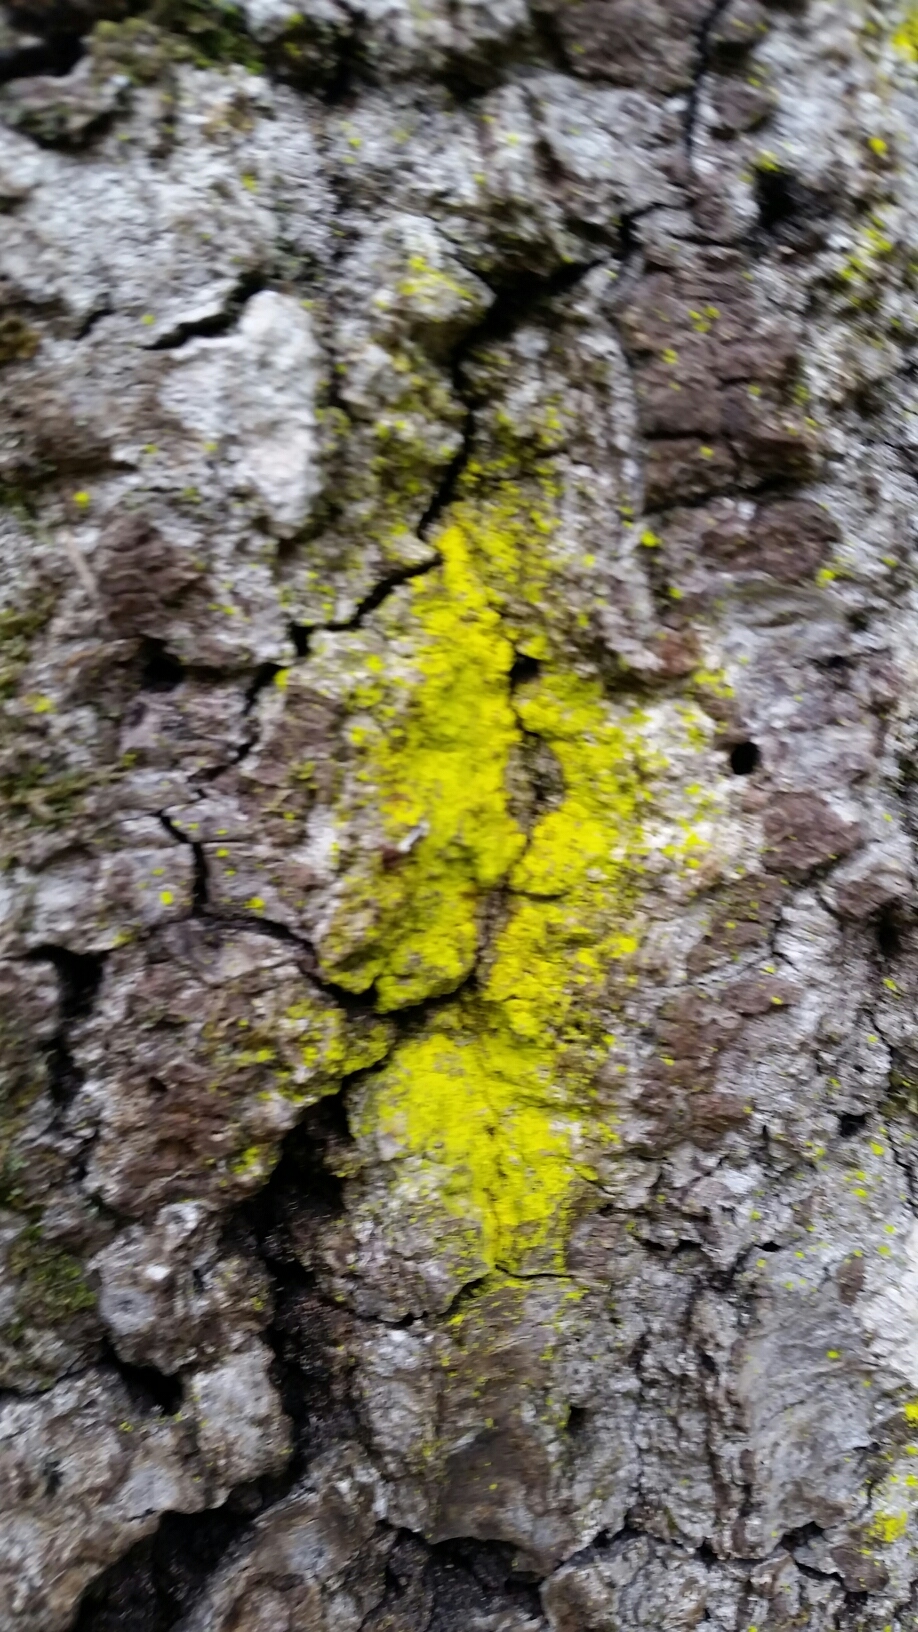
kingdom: Fungi
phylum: Ascomycota
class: Arthoniomycetes
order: Arthoniales
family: Chrysotrichaceae
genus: Chrysothrix
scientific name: Chrysothrix candelaris
